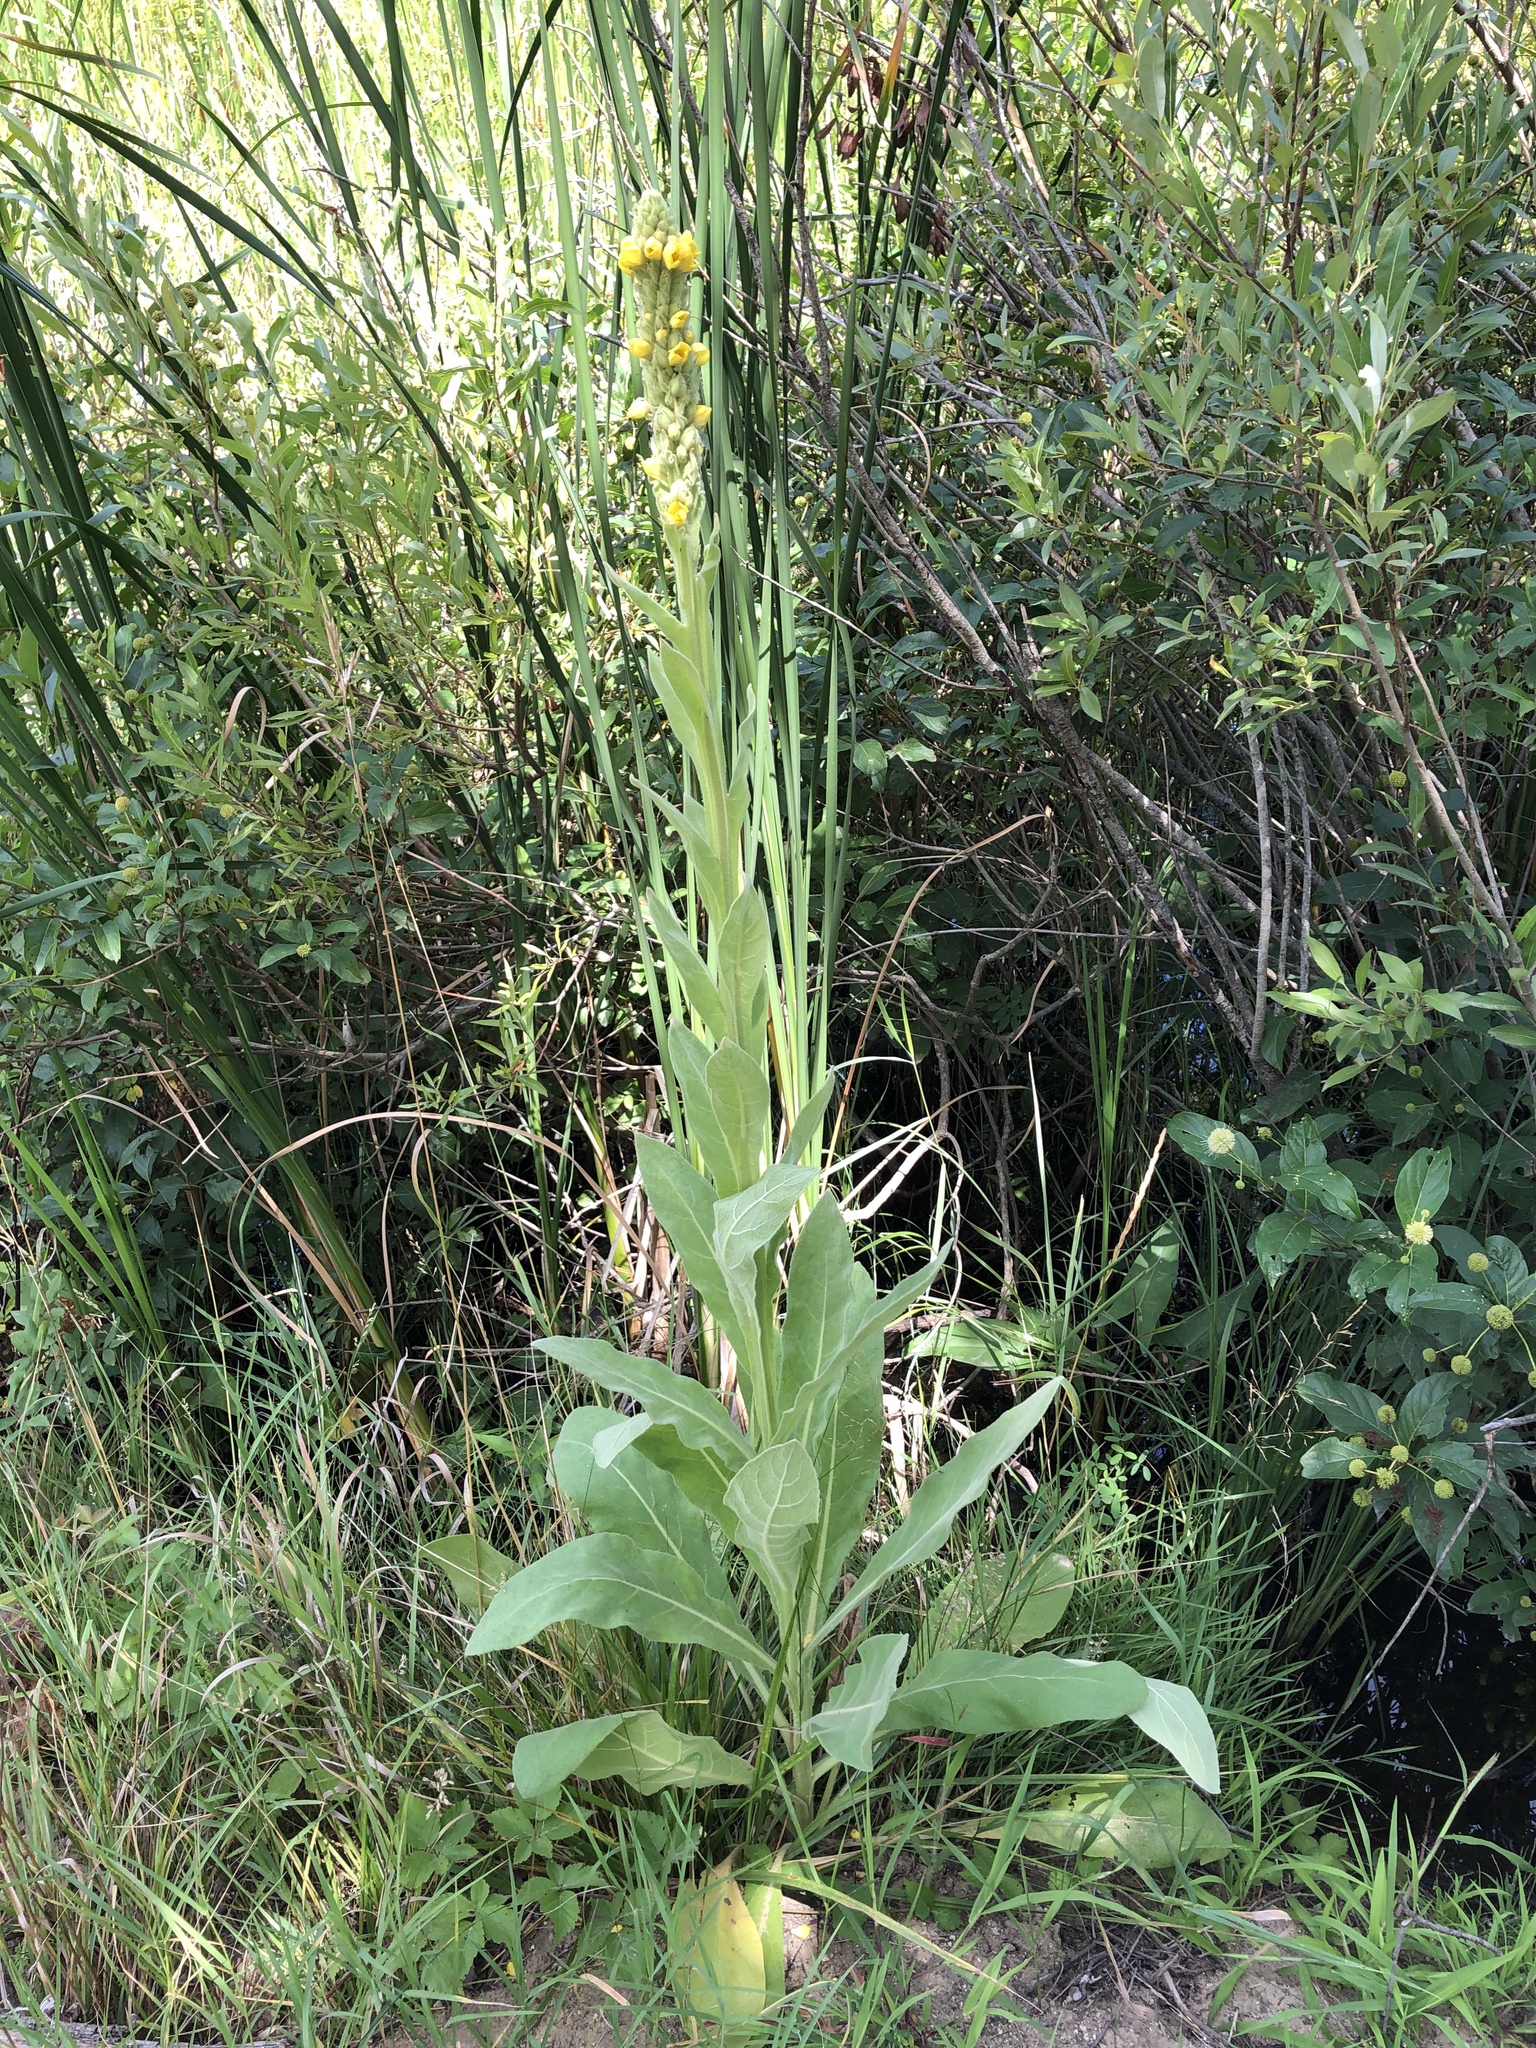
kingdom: Plantae
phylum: Tracheophyta
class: Magnoliopsida
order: Lamiales
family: Scrophulariaceae
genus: Verbascum
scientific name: Verbascum thapsus
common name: Common mullein
